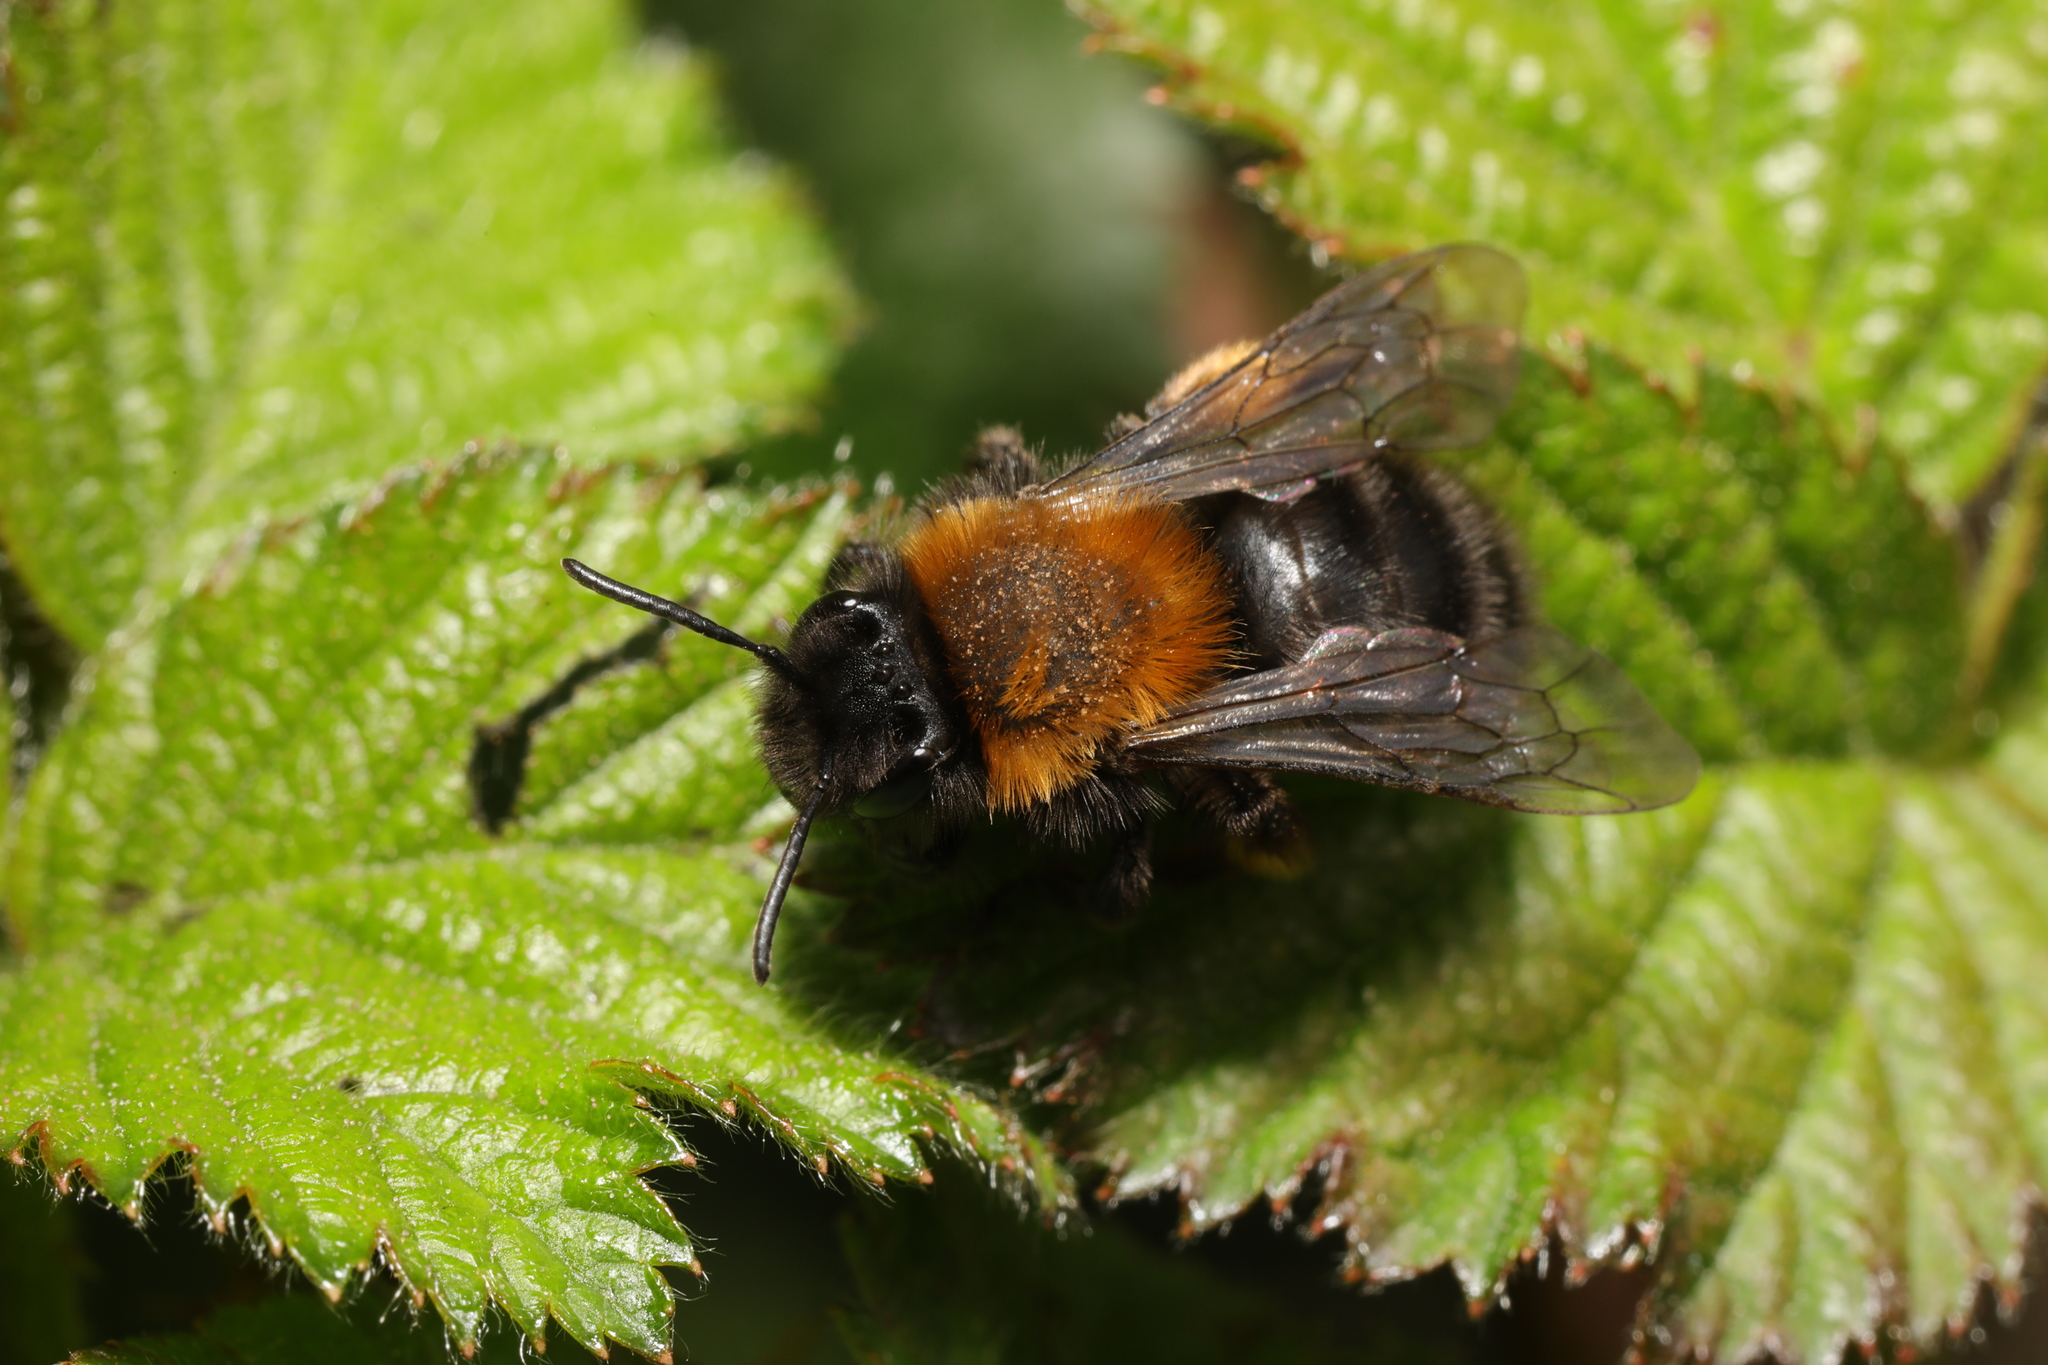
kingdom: Animalia
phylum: Arthropoda
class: Insecta
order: Hymenoptera
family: Andrenidae
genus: Andrena
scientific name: Andrena clarkella
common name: Clarke's mining bee
